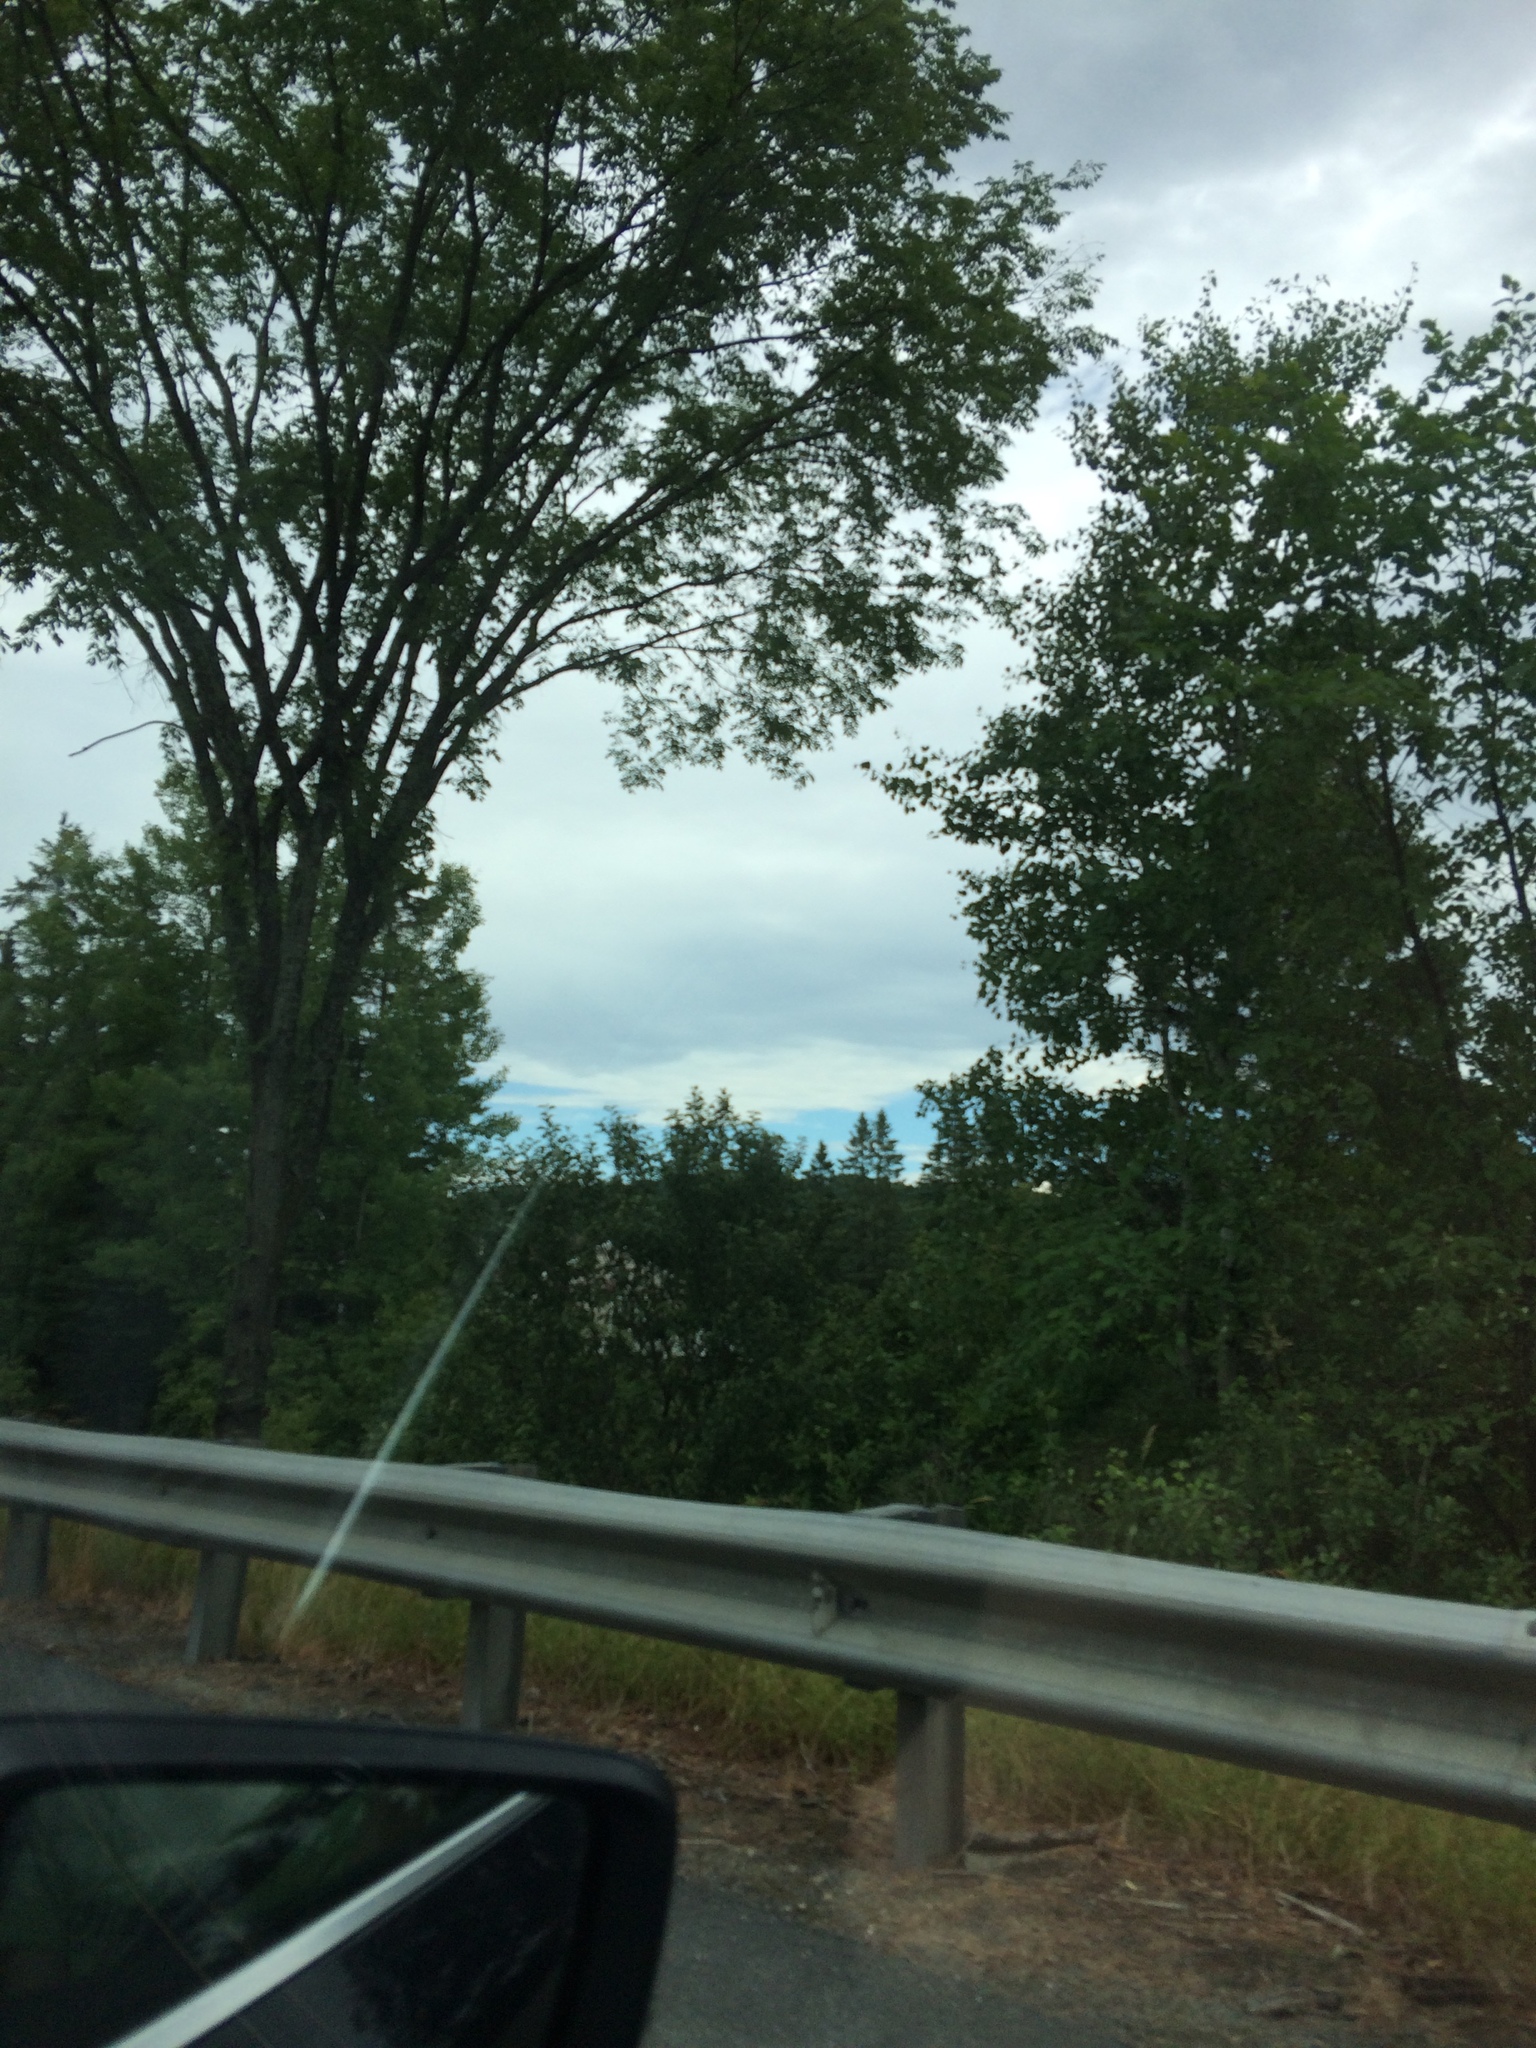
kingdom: Plantae
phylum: Tracheophyta
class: Magnoliopsida
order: Rosales
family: Ulmaceae
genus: Ulmus
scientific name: Ulmus americana
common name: American elm
